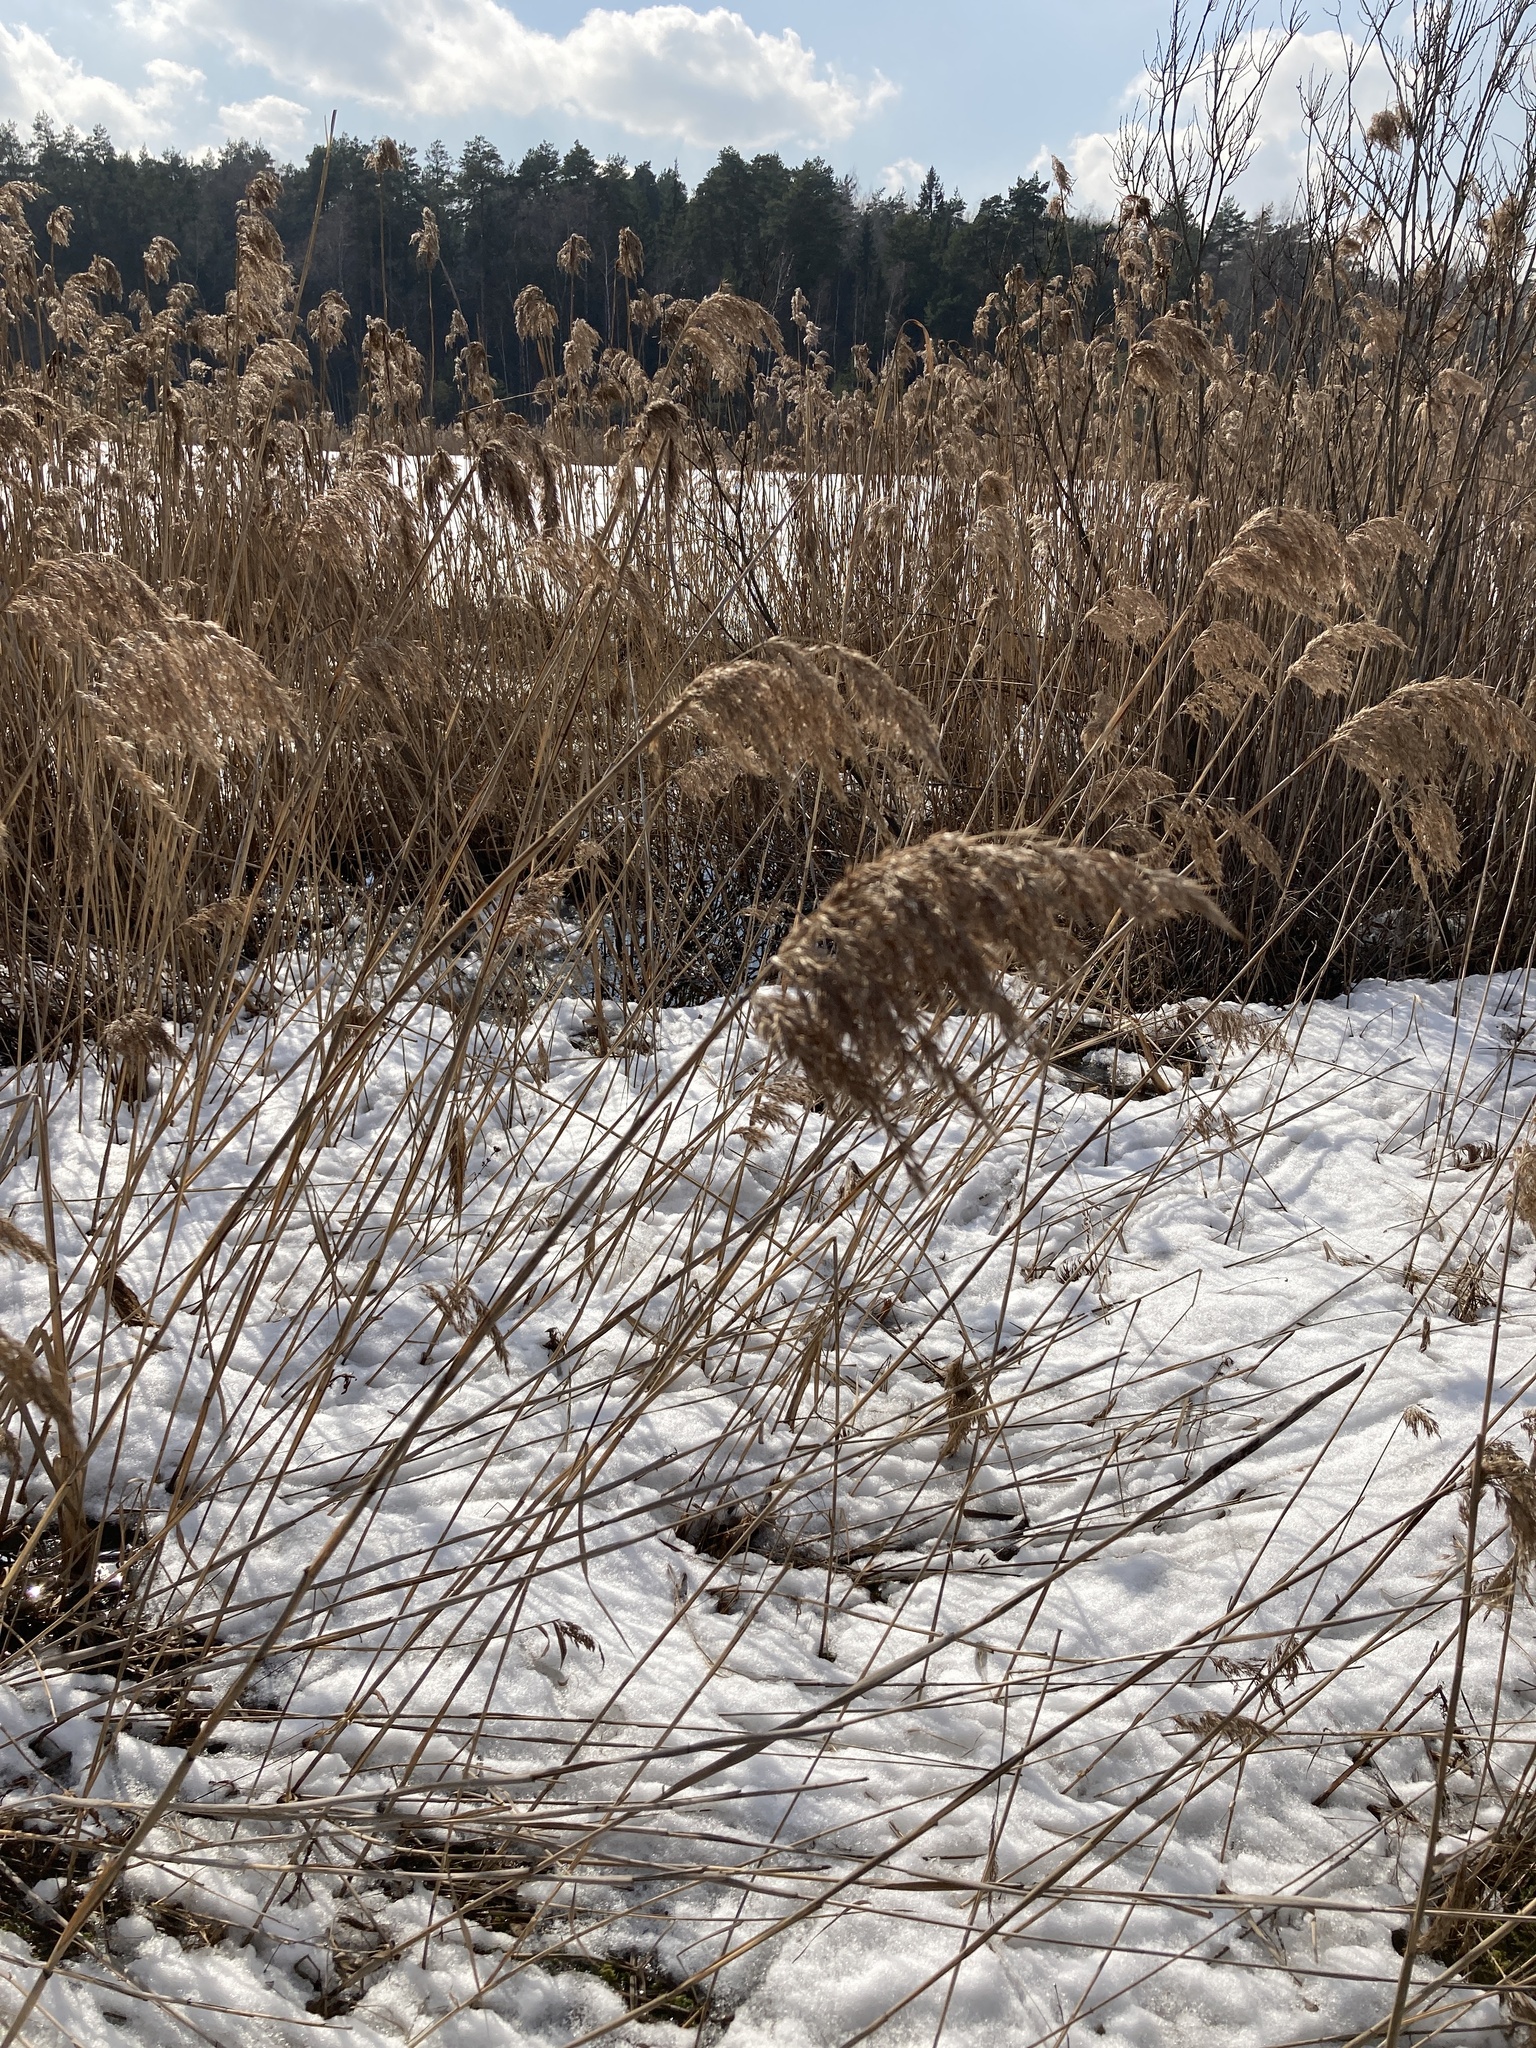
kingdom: Plantae
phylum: Tracheophyta
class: Liliopsida
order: Poales
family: Poaceae
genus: Phragmites
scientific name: Phragmites australis
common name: Common reed
